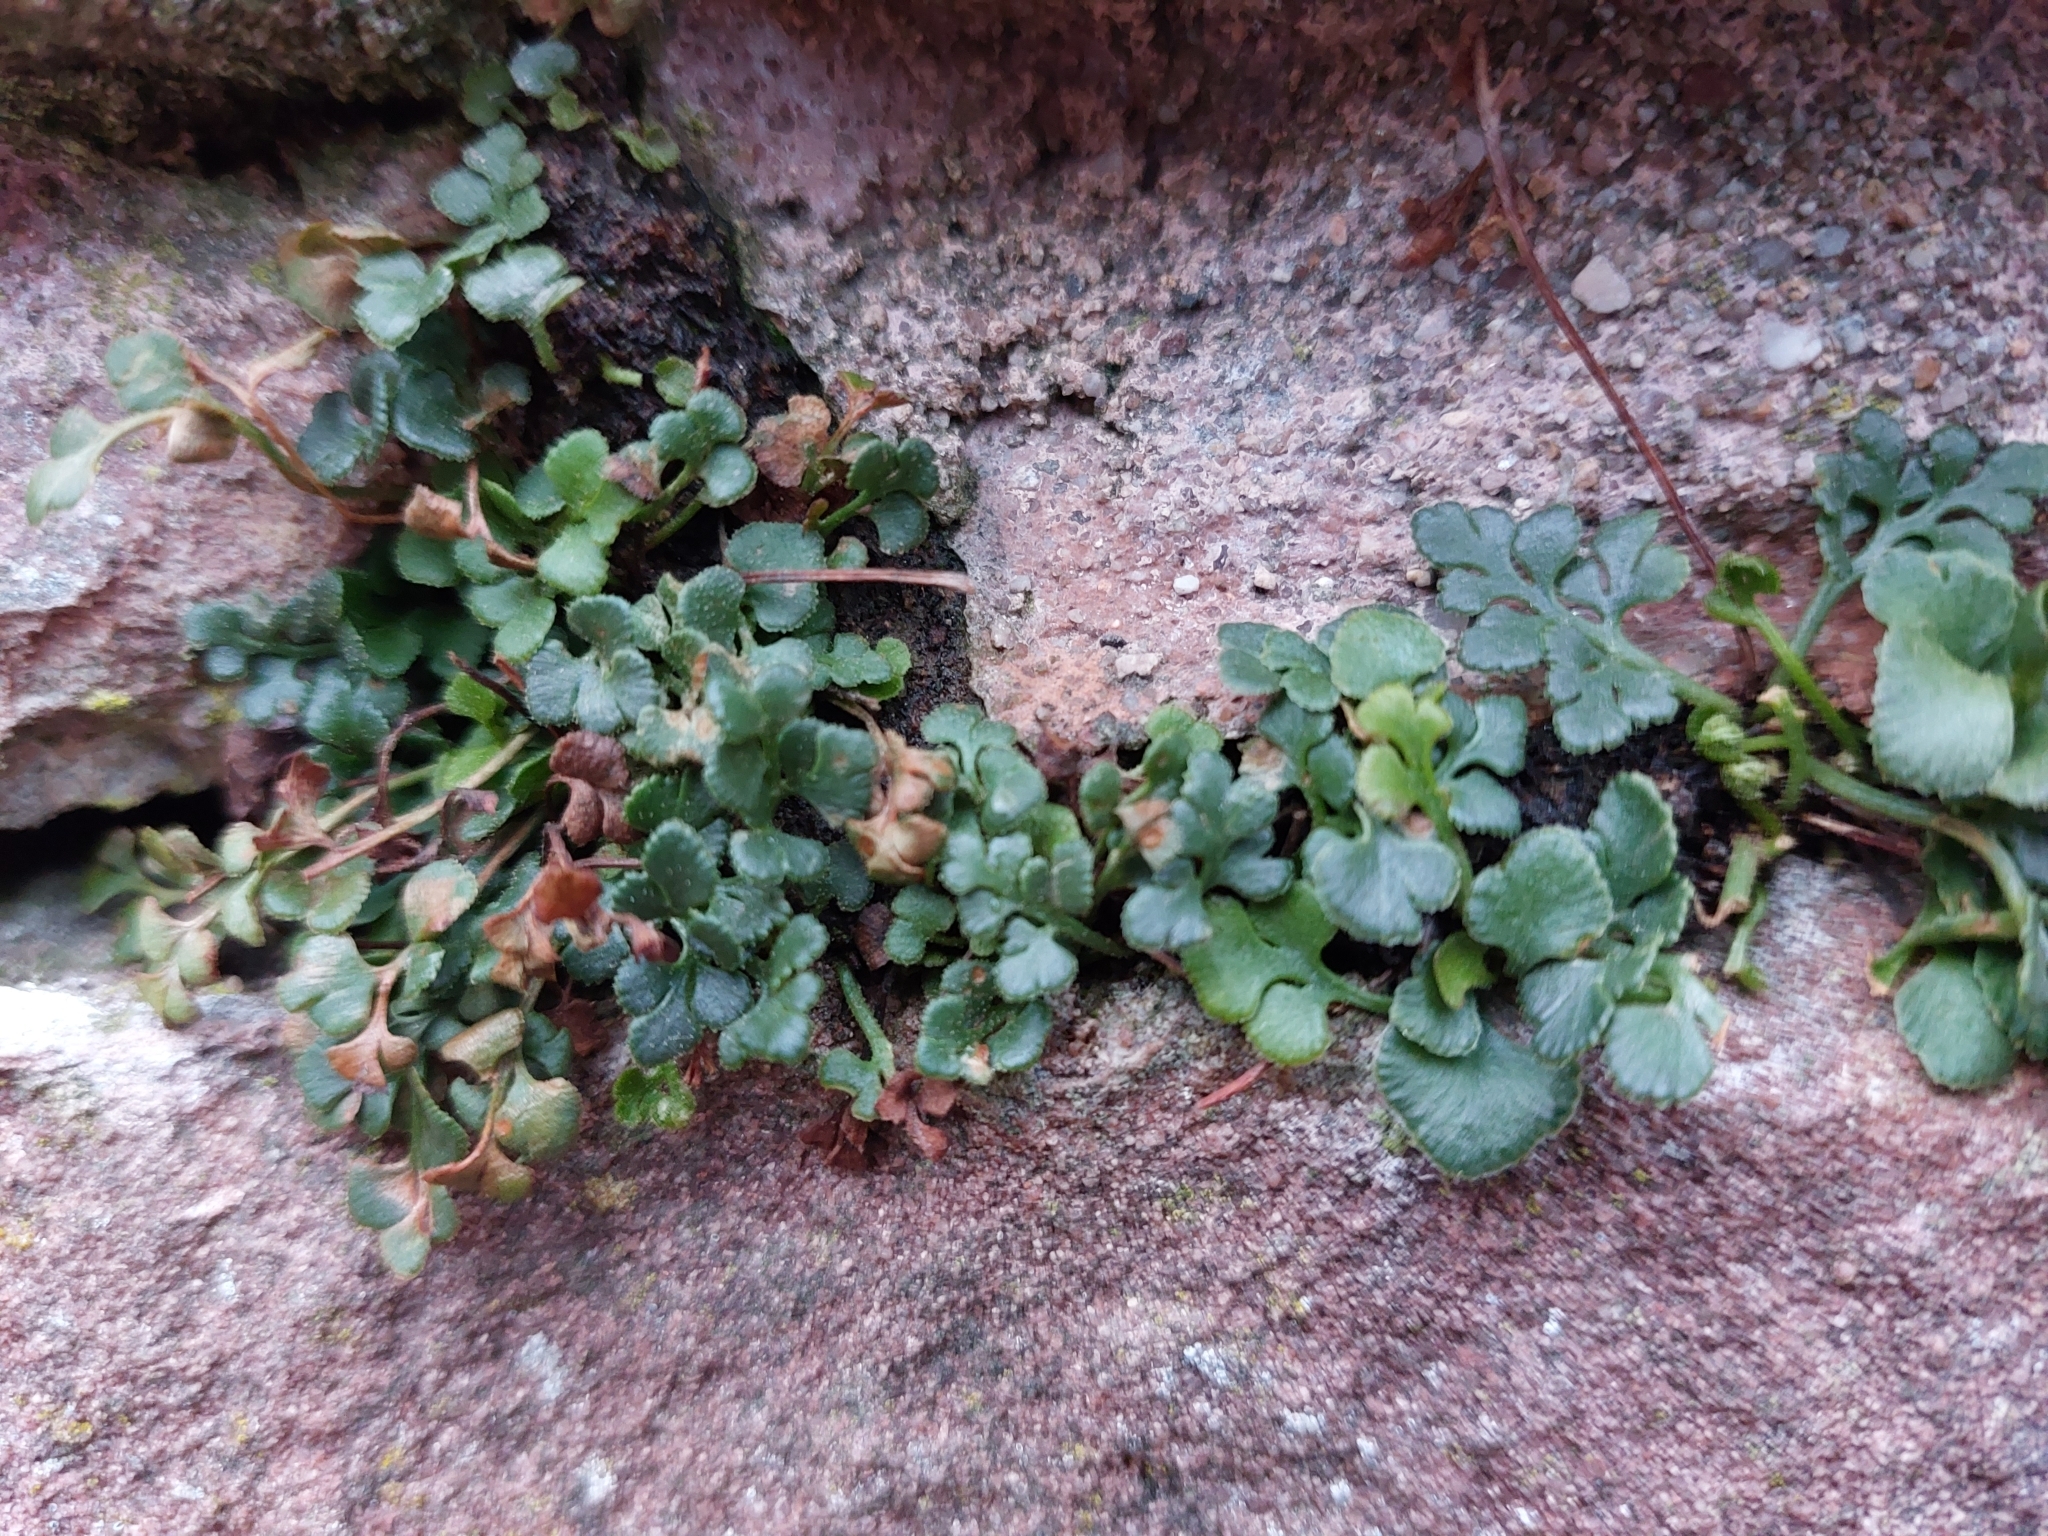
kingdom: Plantae
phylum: Tracheophyta
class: Polypodiopsida
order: Polypodiales
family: Aspleniaceae
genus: Asplenium
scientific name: Asplenium ruta-muraria
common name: Wall-rue
